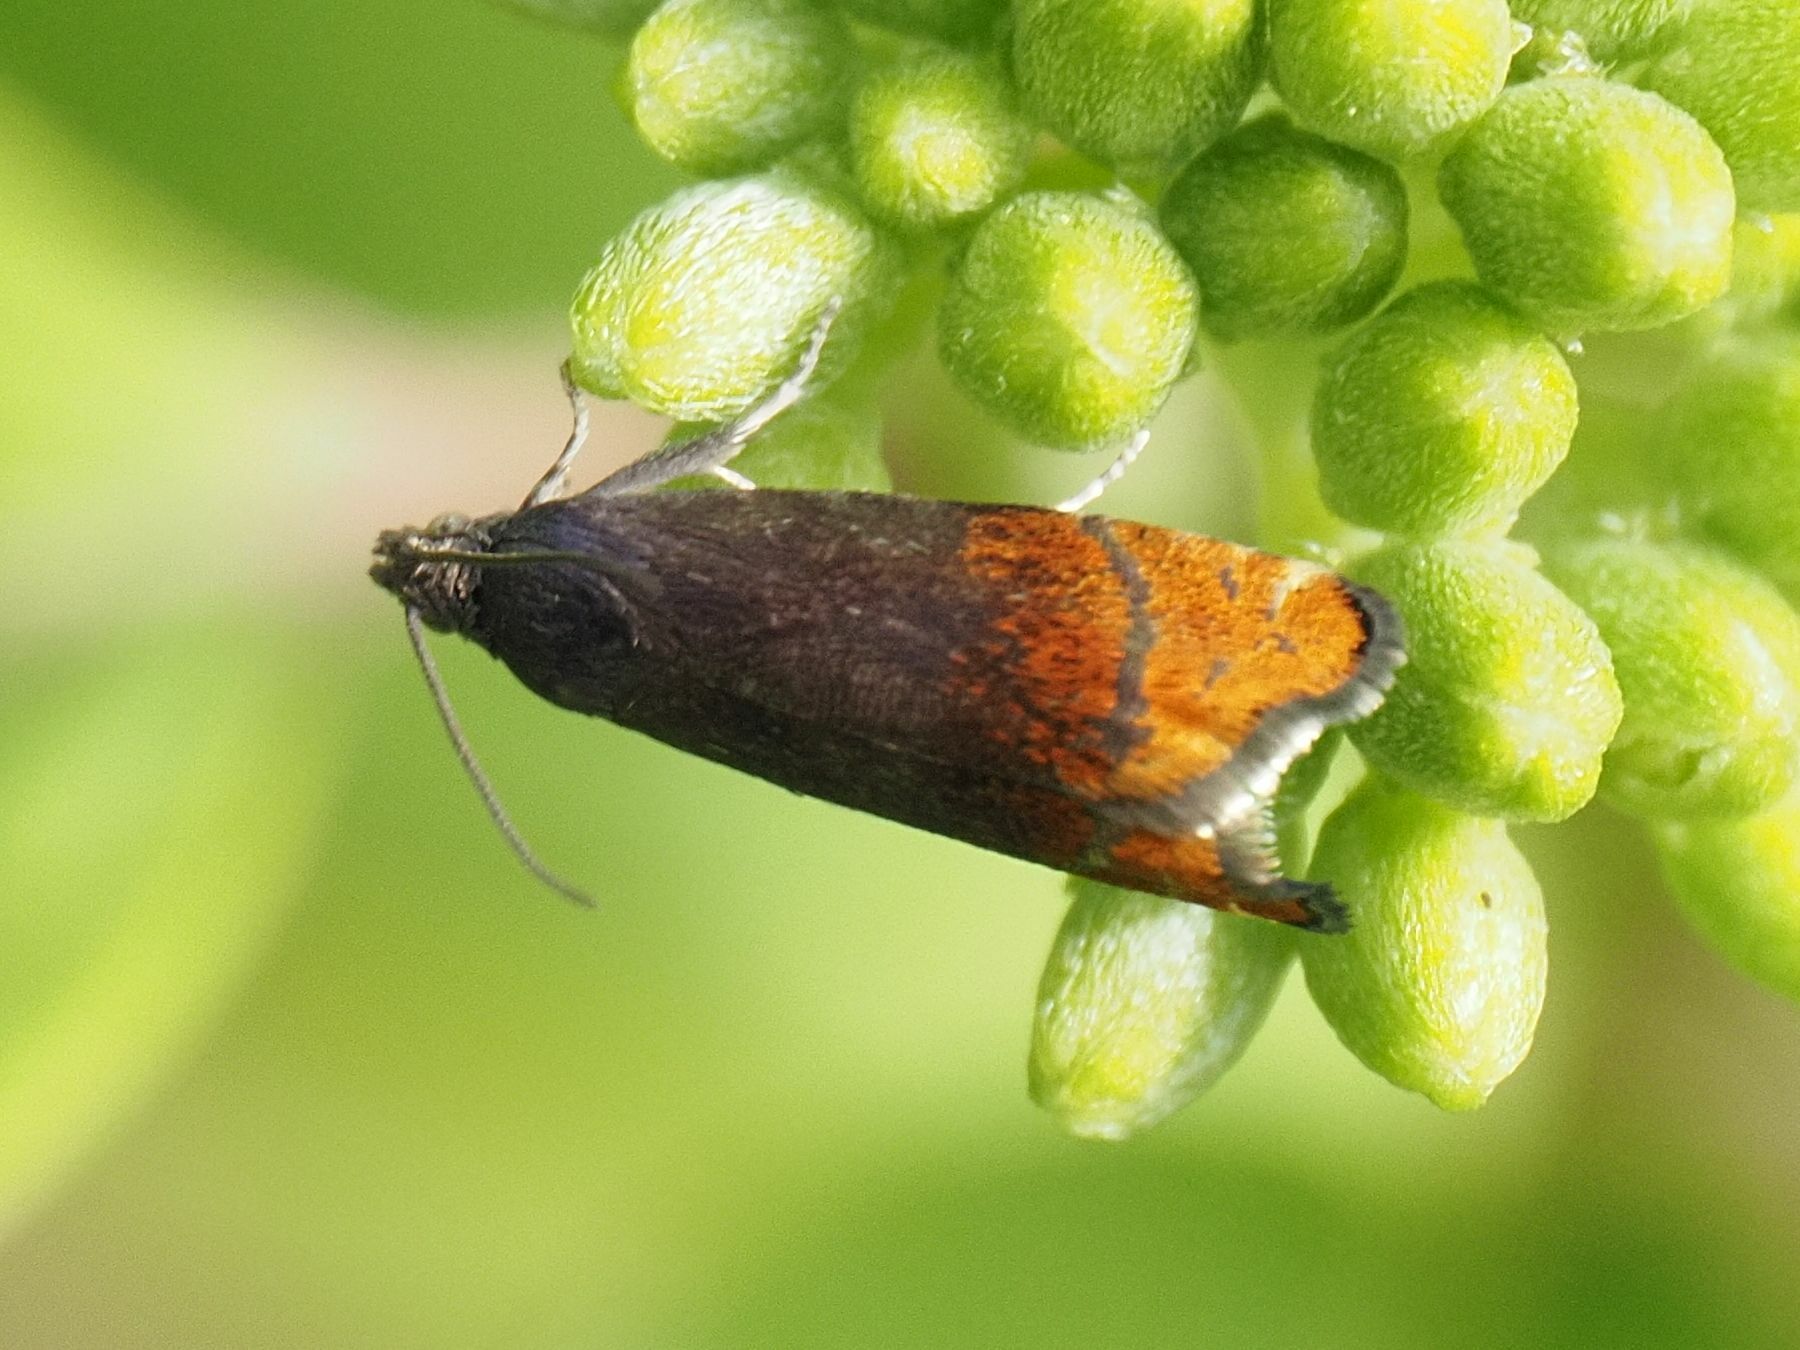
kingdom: Animalia
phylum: Arthropoda
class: Insecta
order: Lepidoptera
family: Tortricidae
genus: Pammene
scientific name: Pammene rhediella
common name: Fruitlet-mining tortrix
